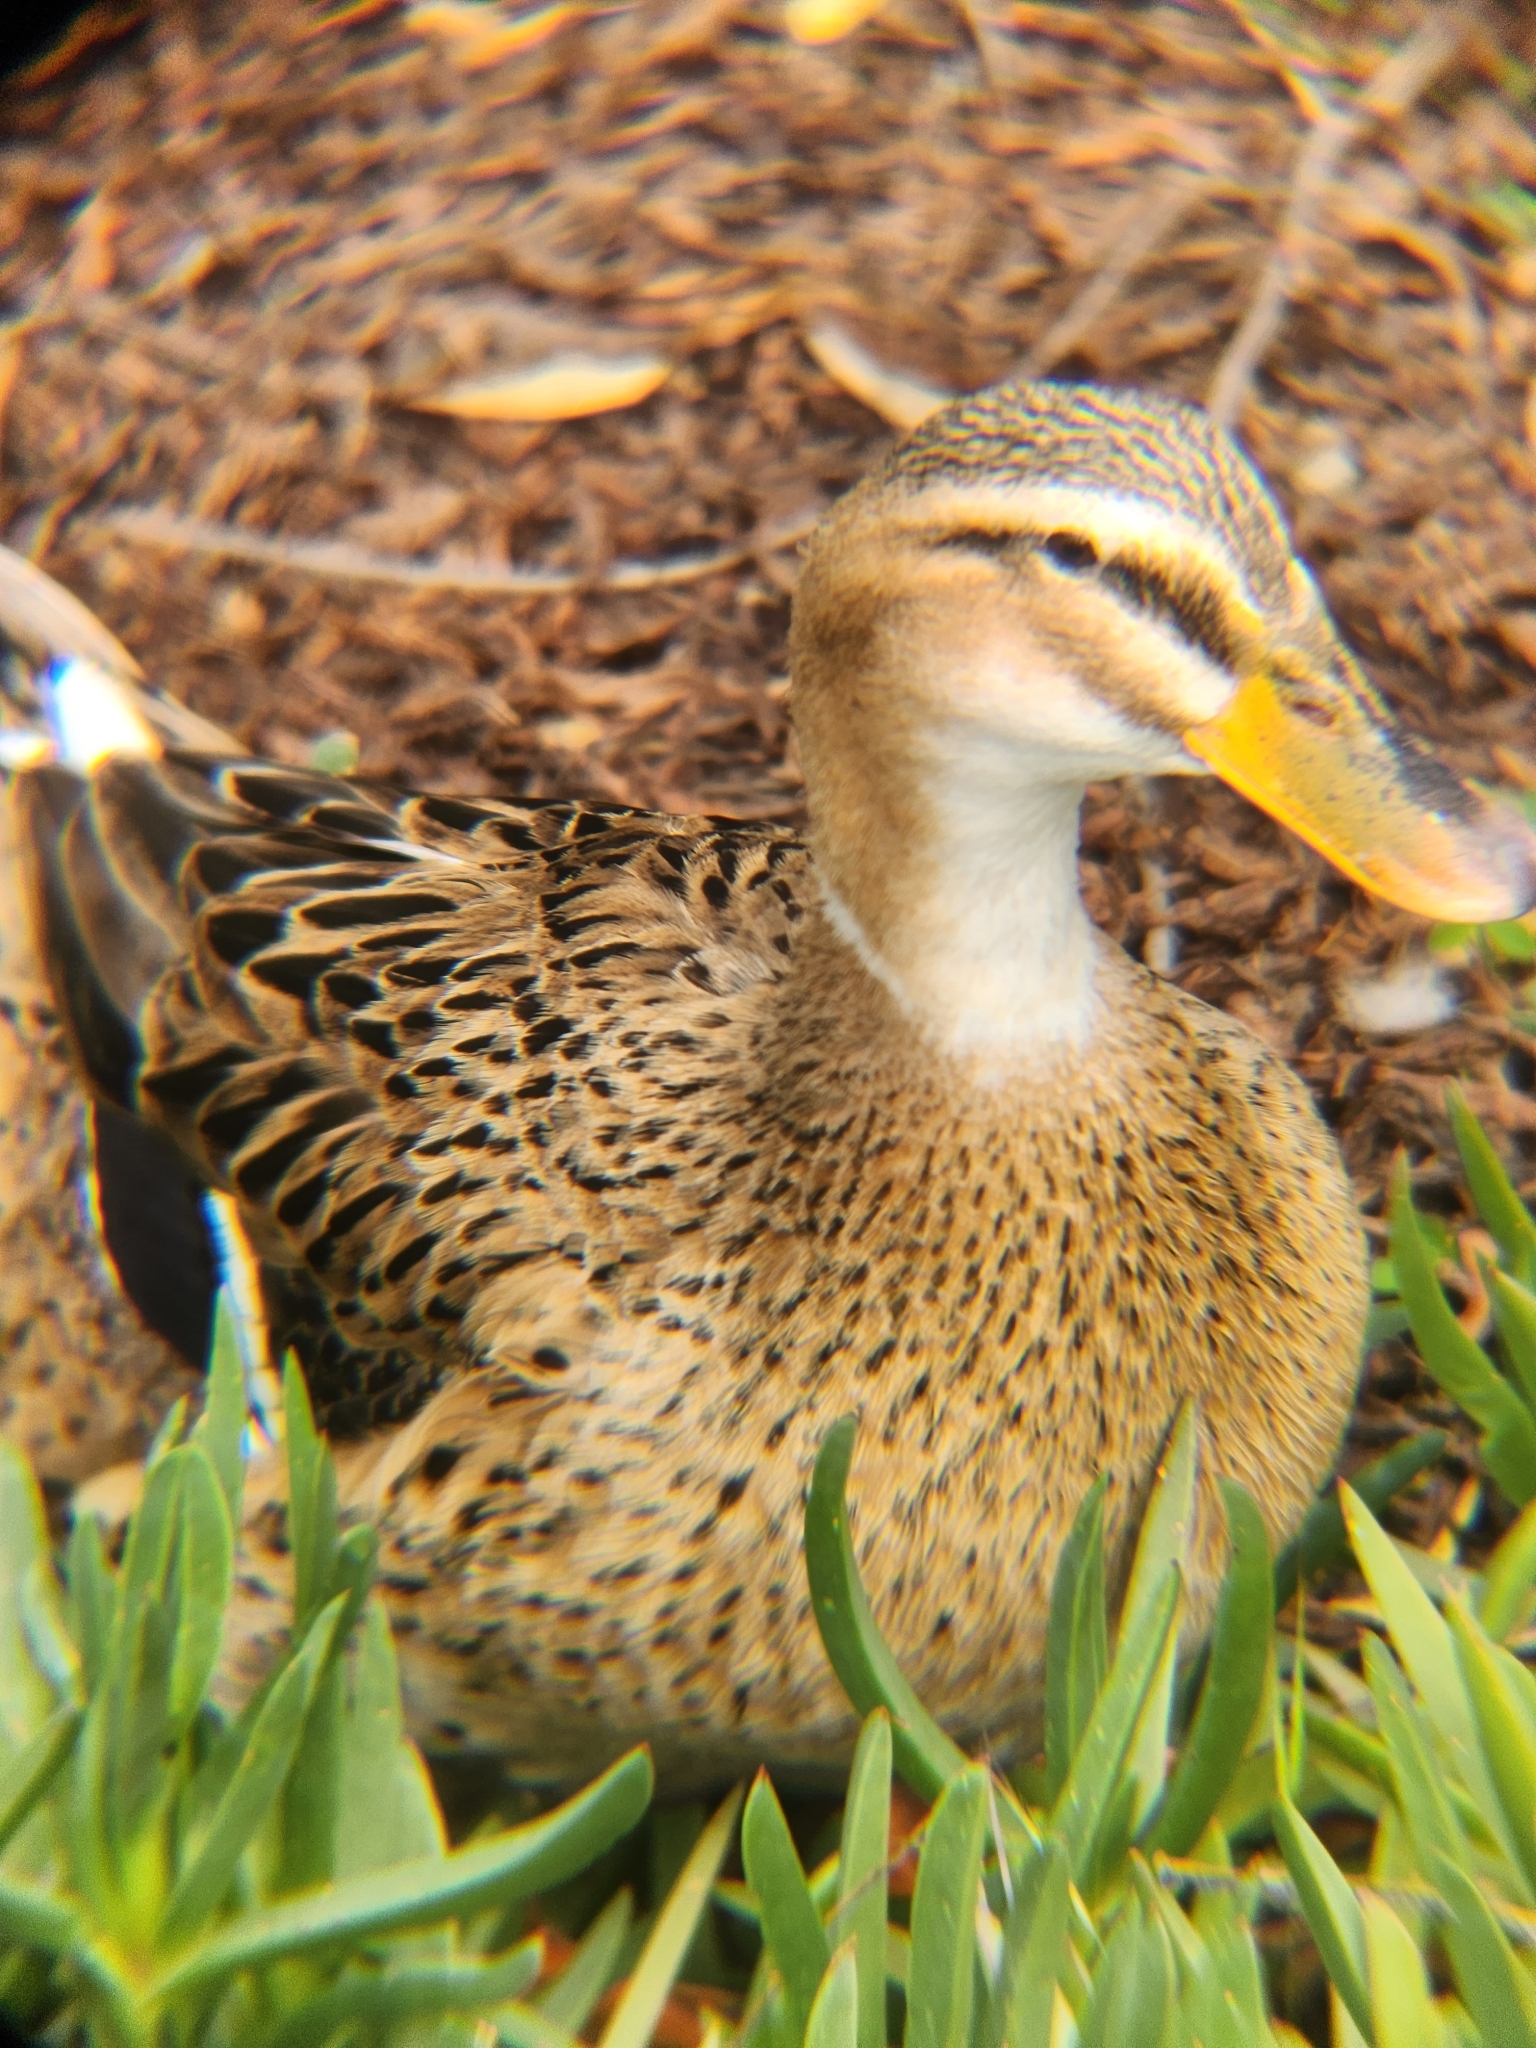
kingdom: Animalia
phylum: Chordata
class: Aves
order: Anseriformes
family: Anatidae
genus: Anas
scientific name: Anas platyrhynchos
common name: Mallard
